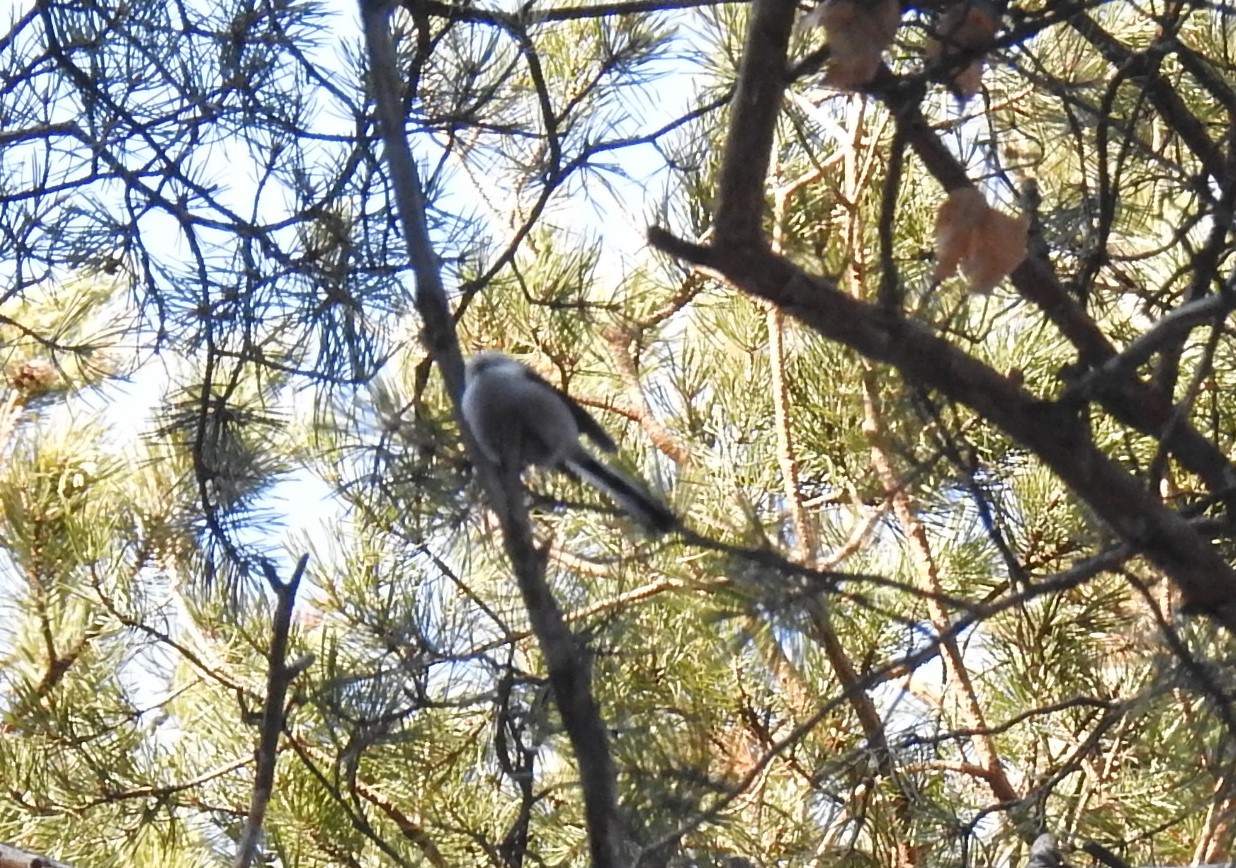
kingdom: Animalia
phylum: Chordata
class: Aves
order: Passeriformes
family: Aegithalidae
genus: Aegithalos
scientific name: Aegithalos caudatus
